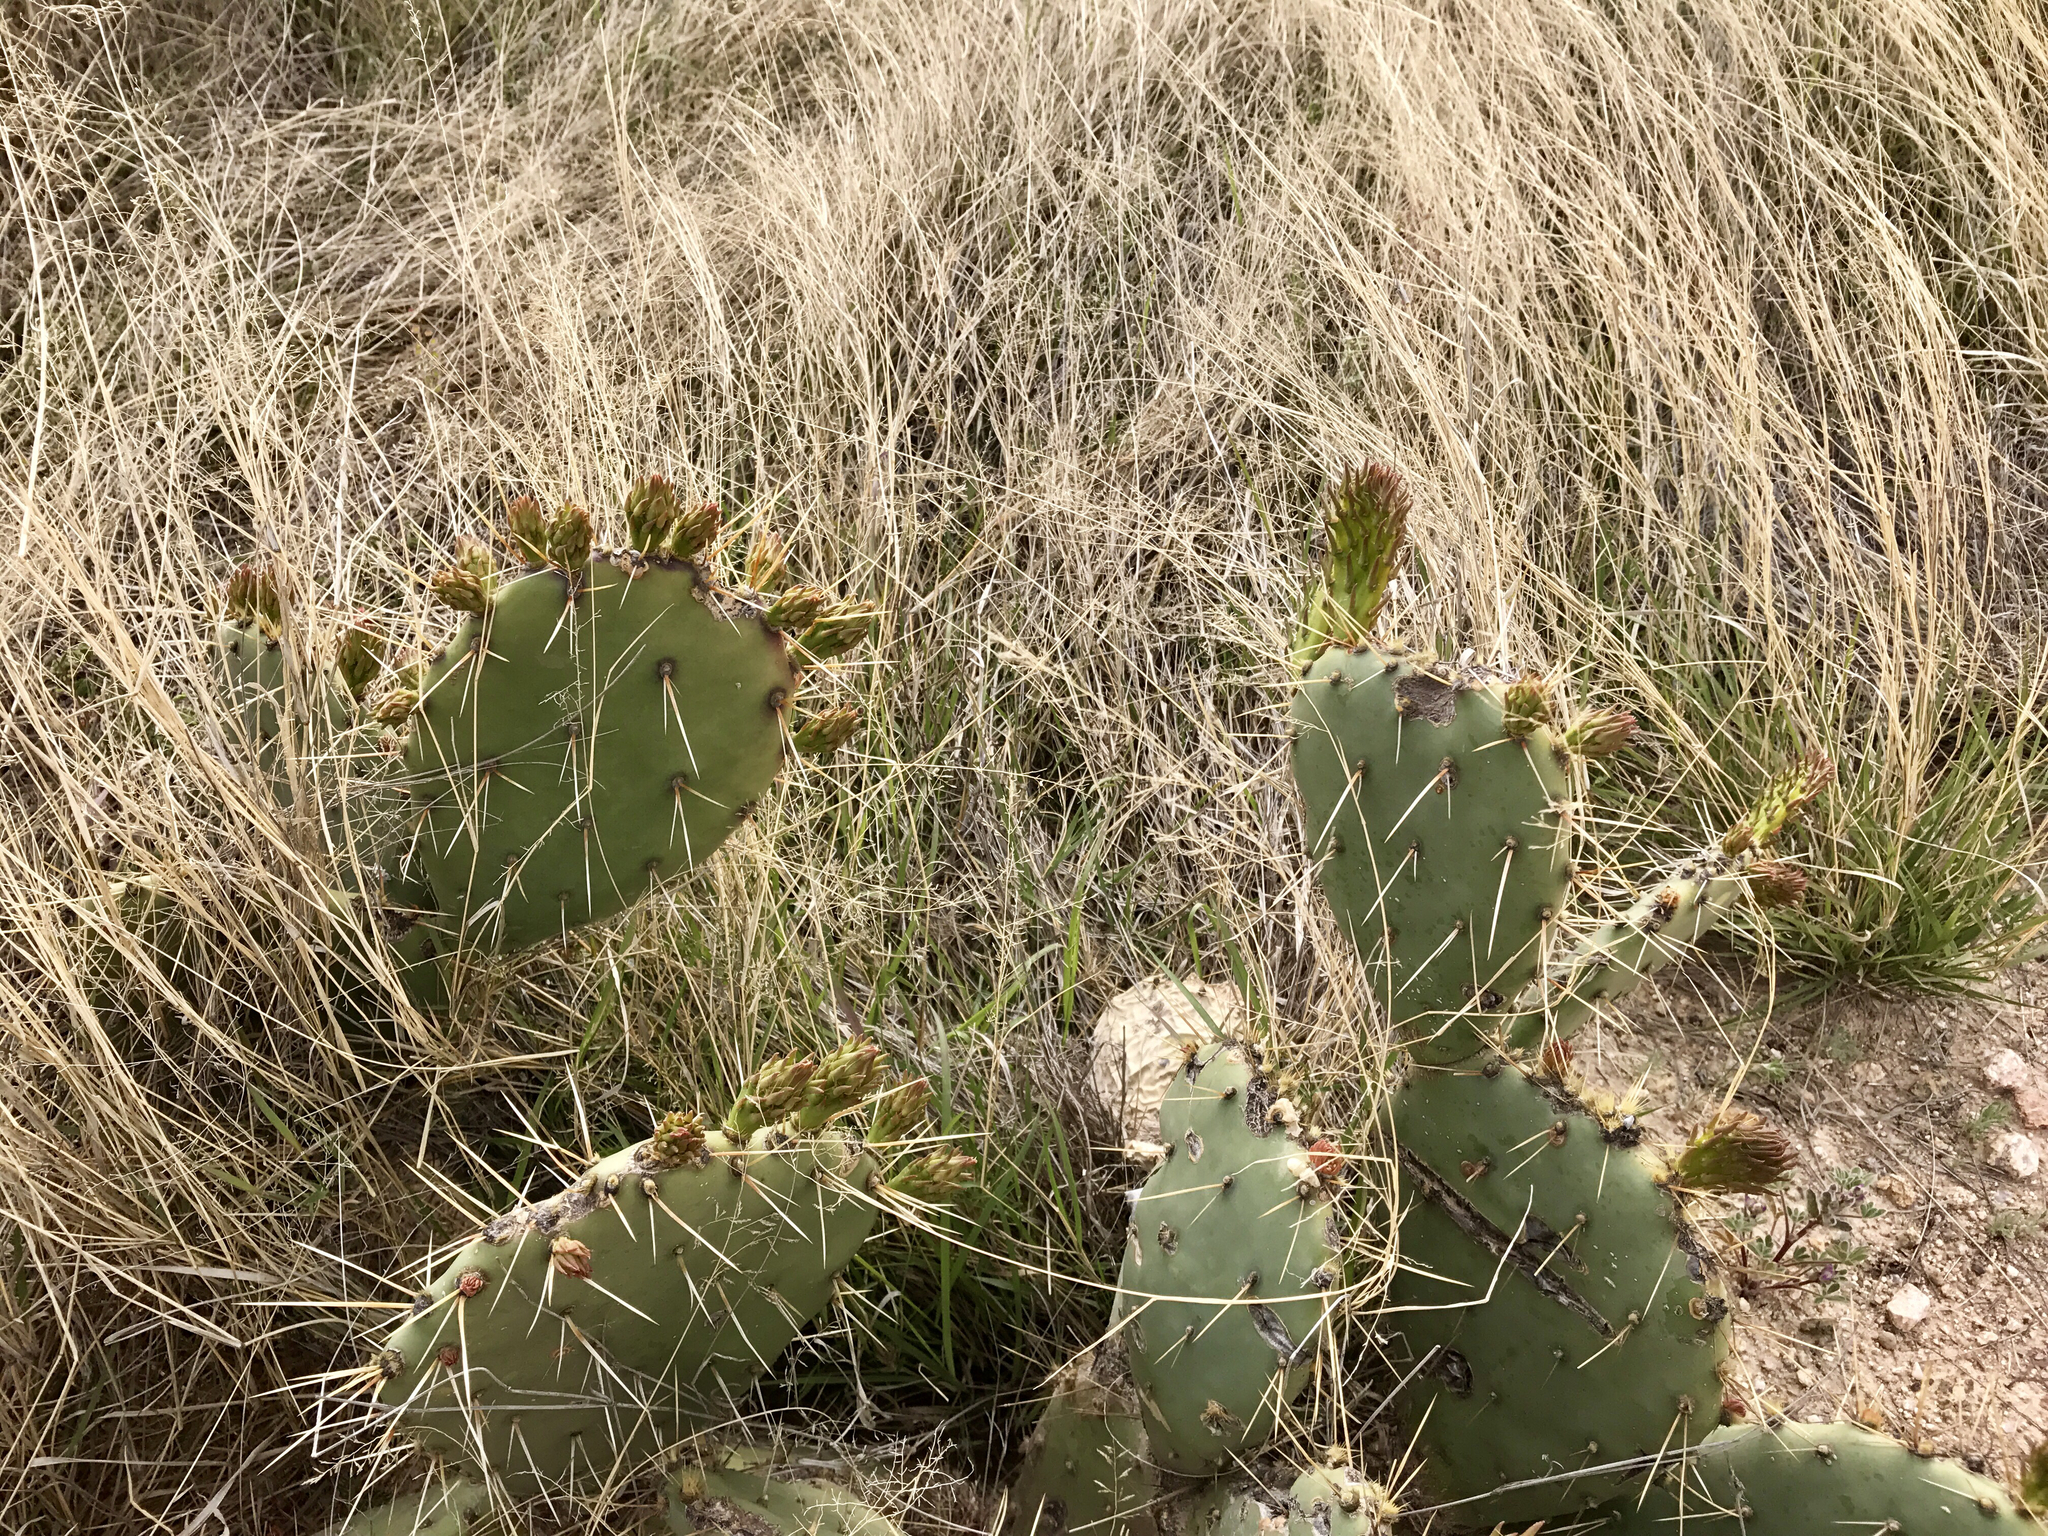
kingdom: Plantae
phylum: Tracheophyta
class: Magnoliopsida
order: Caryophyllales
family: Cactaceae
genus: Opuntia
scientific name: Opuntia engelmannii
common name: Cactus-apple
